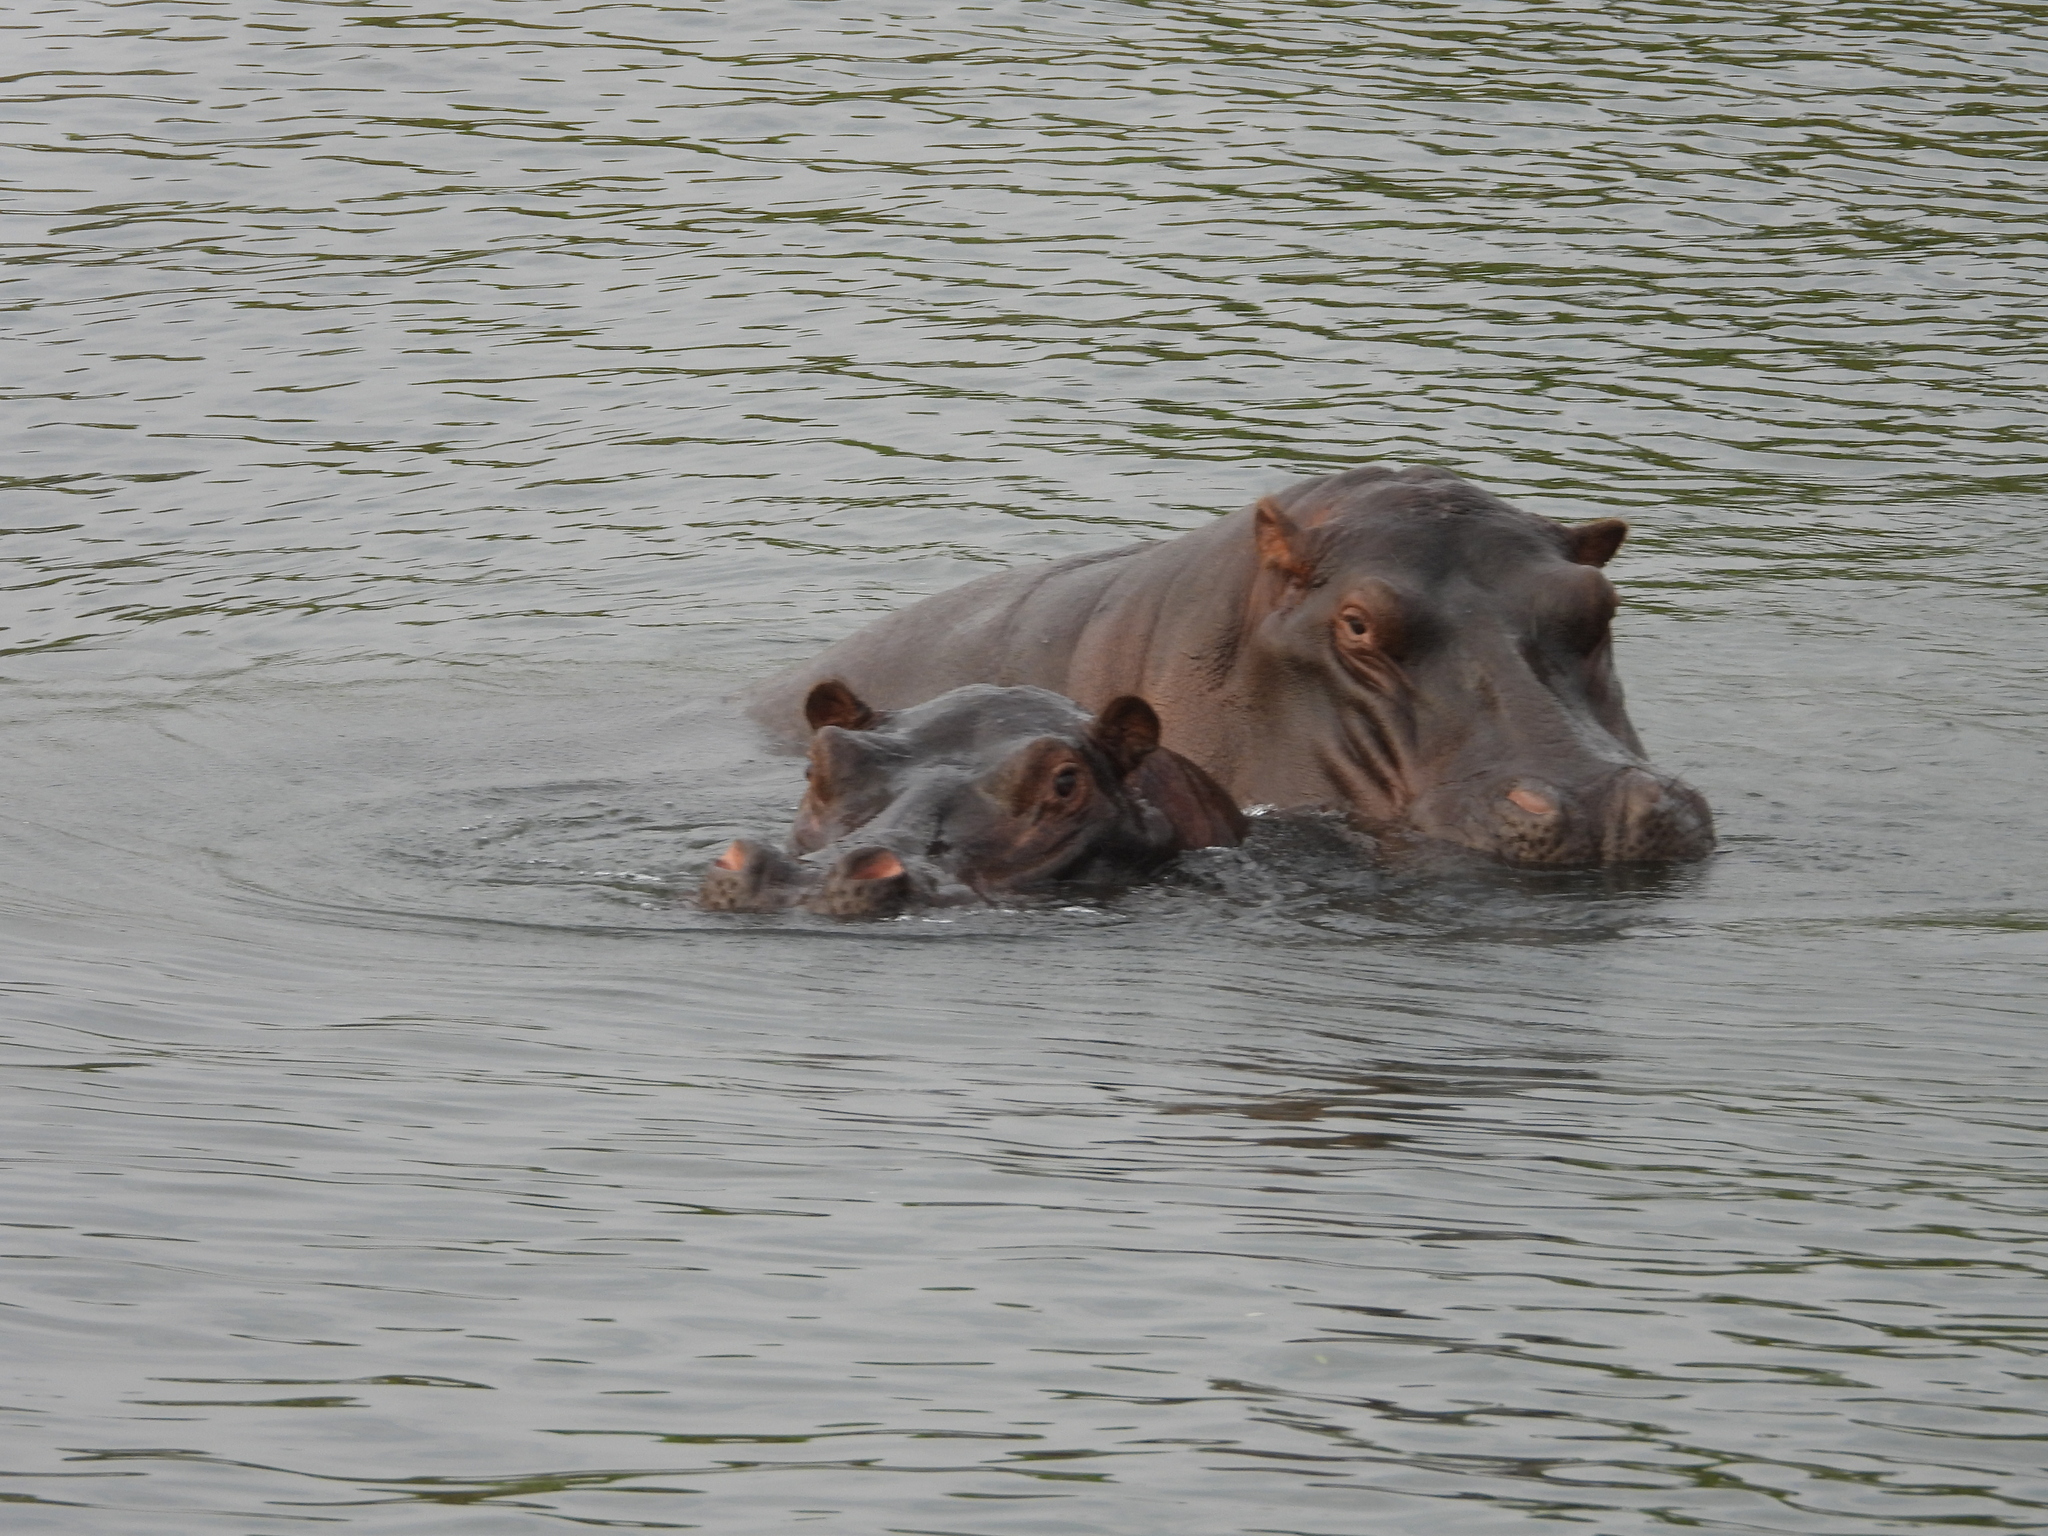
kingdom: Animalia
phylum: Chordata
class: Mammalia
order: Artiodactyla
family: Hippopotamidae
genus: Hippopotamus
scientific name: Hippopotamus amphibius
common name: Common hippopotamus
